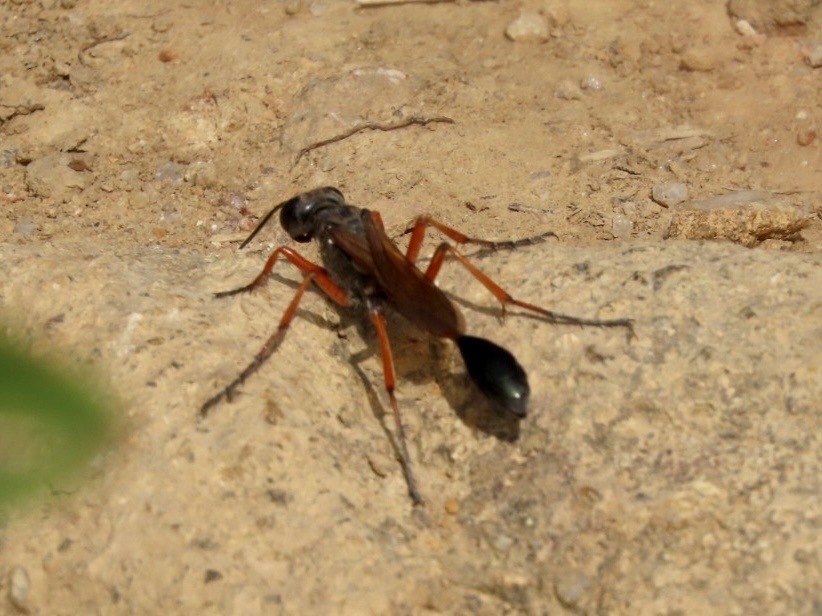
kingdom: Animalia
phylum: Arthropoda
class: Insecta
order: Hymenoptera
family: Sphecidae
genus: Ammophila
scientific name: Ammophila clavus
